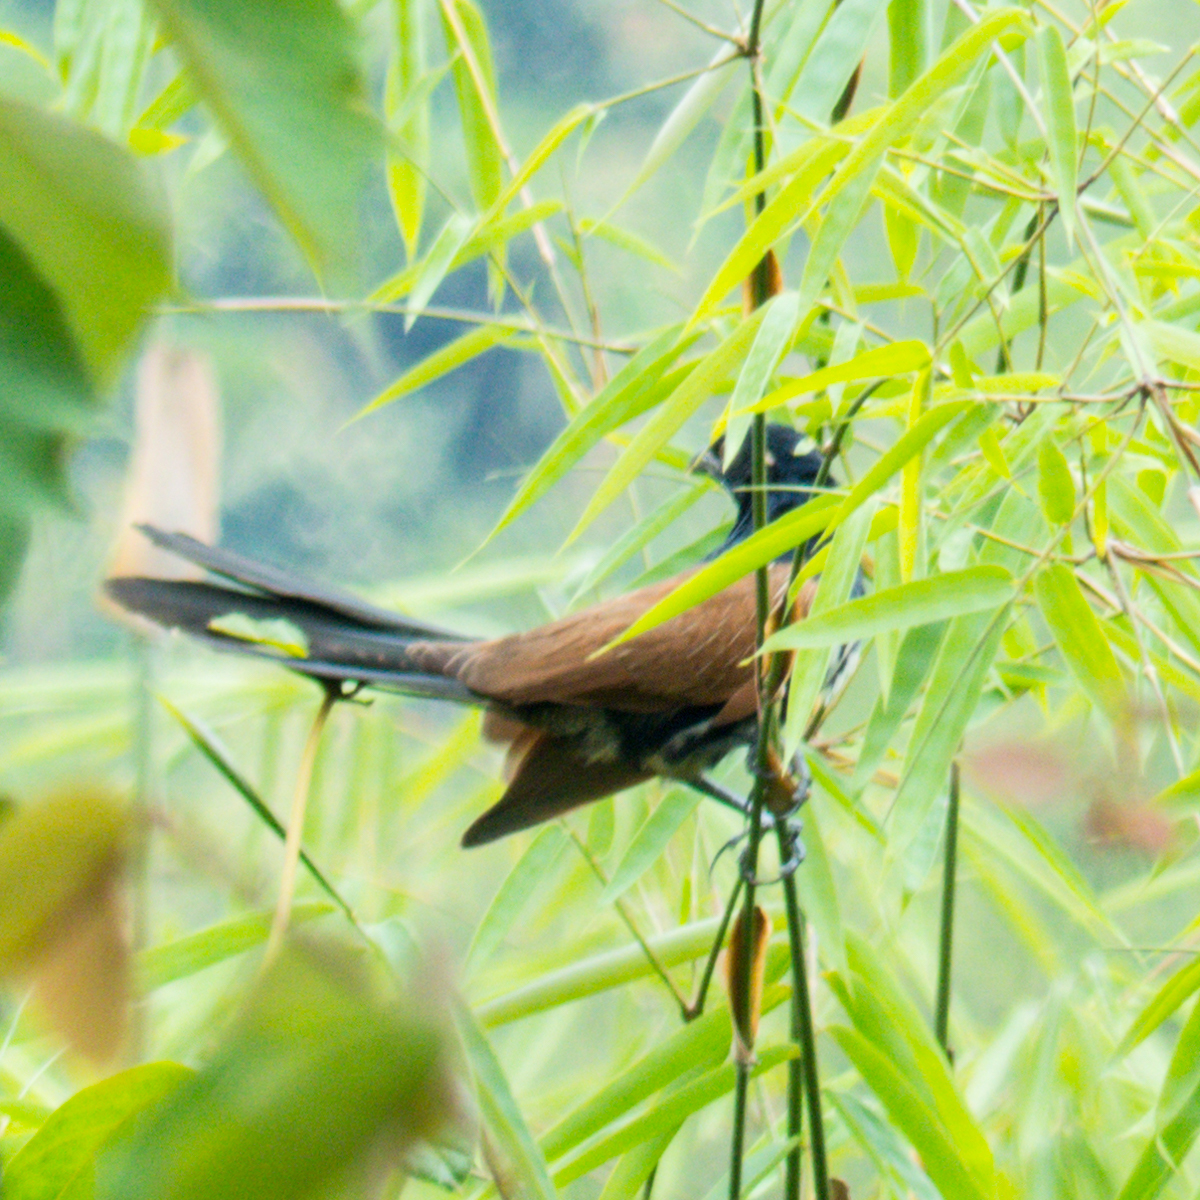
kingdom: Animalia
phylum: Chordata
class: Aves
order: Cuculiformes
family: Cuculidae
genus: Centropus
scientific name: Centropus sinensis
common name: Greater coucal
